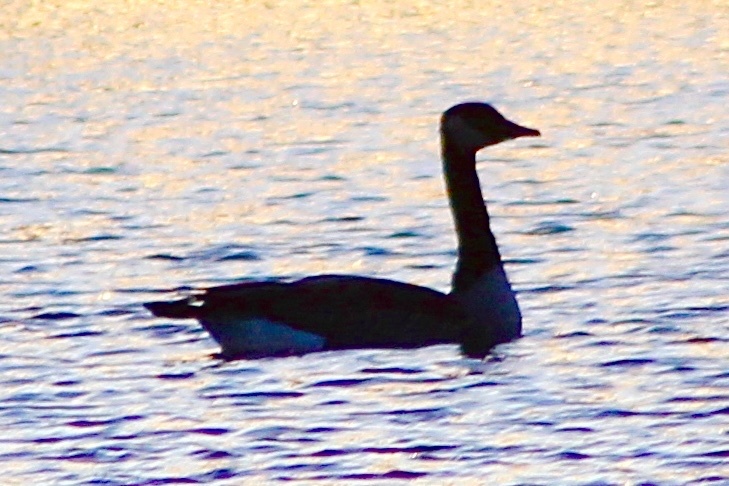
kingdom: Animalia
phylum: Chordata
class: Aves
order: Anseriformes
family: Anatidae
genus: Branta
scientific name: Branta canadensis
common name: Canada goose
